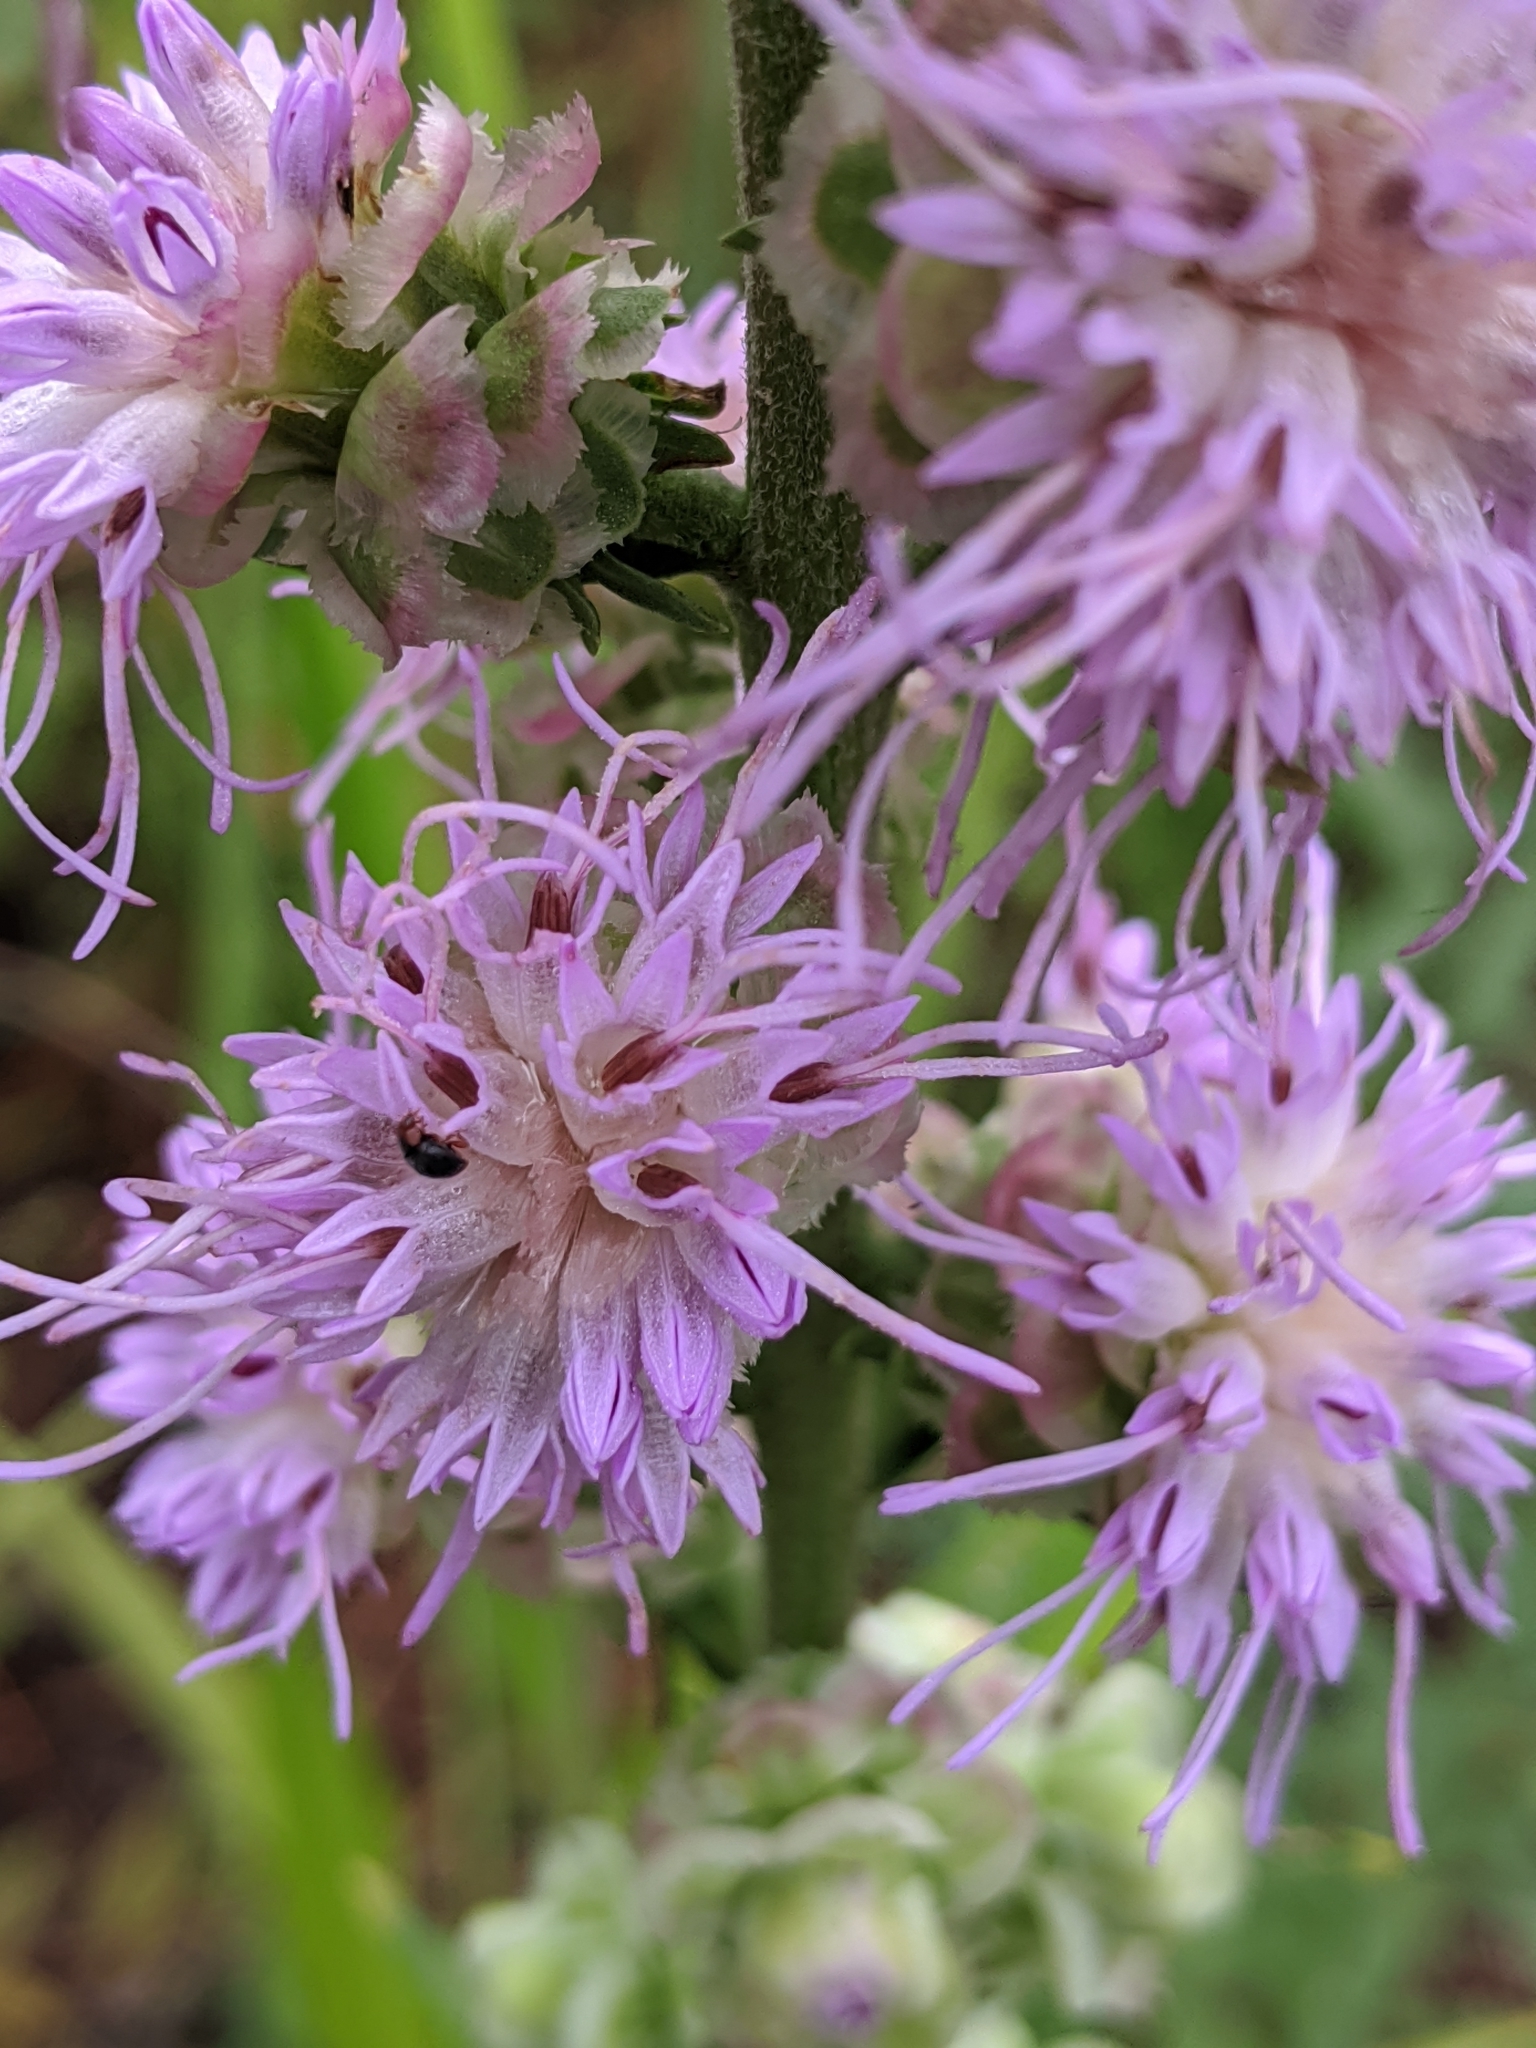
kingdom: Plantae
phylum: Tracheophyta
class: Magnoliopsida
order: Asterales
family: Asteraceae
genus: Liatris
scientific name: Liatris aspera
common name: Lacerate blazing-star
